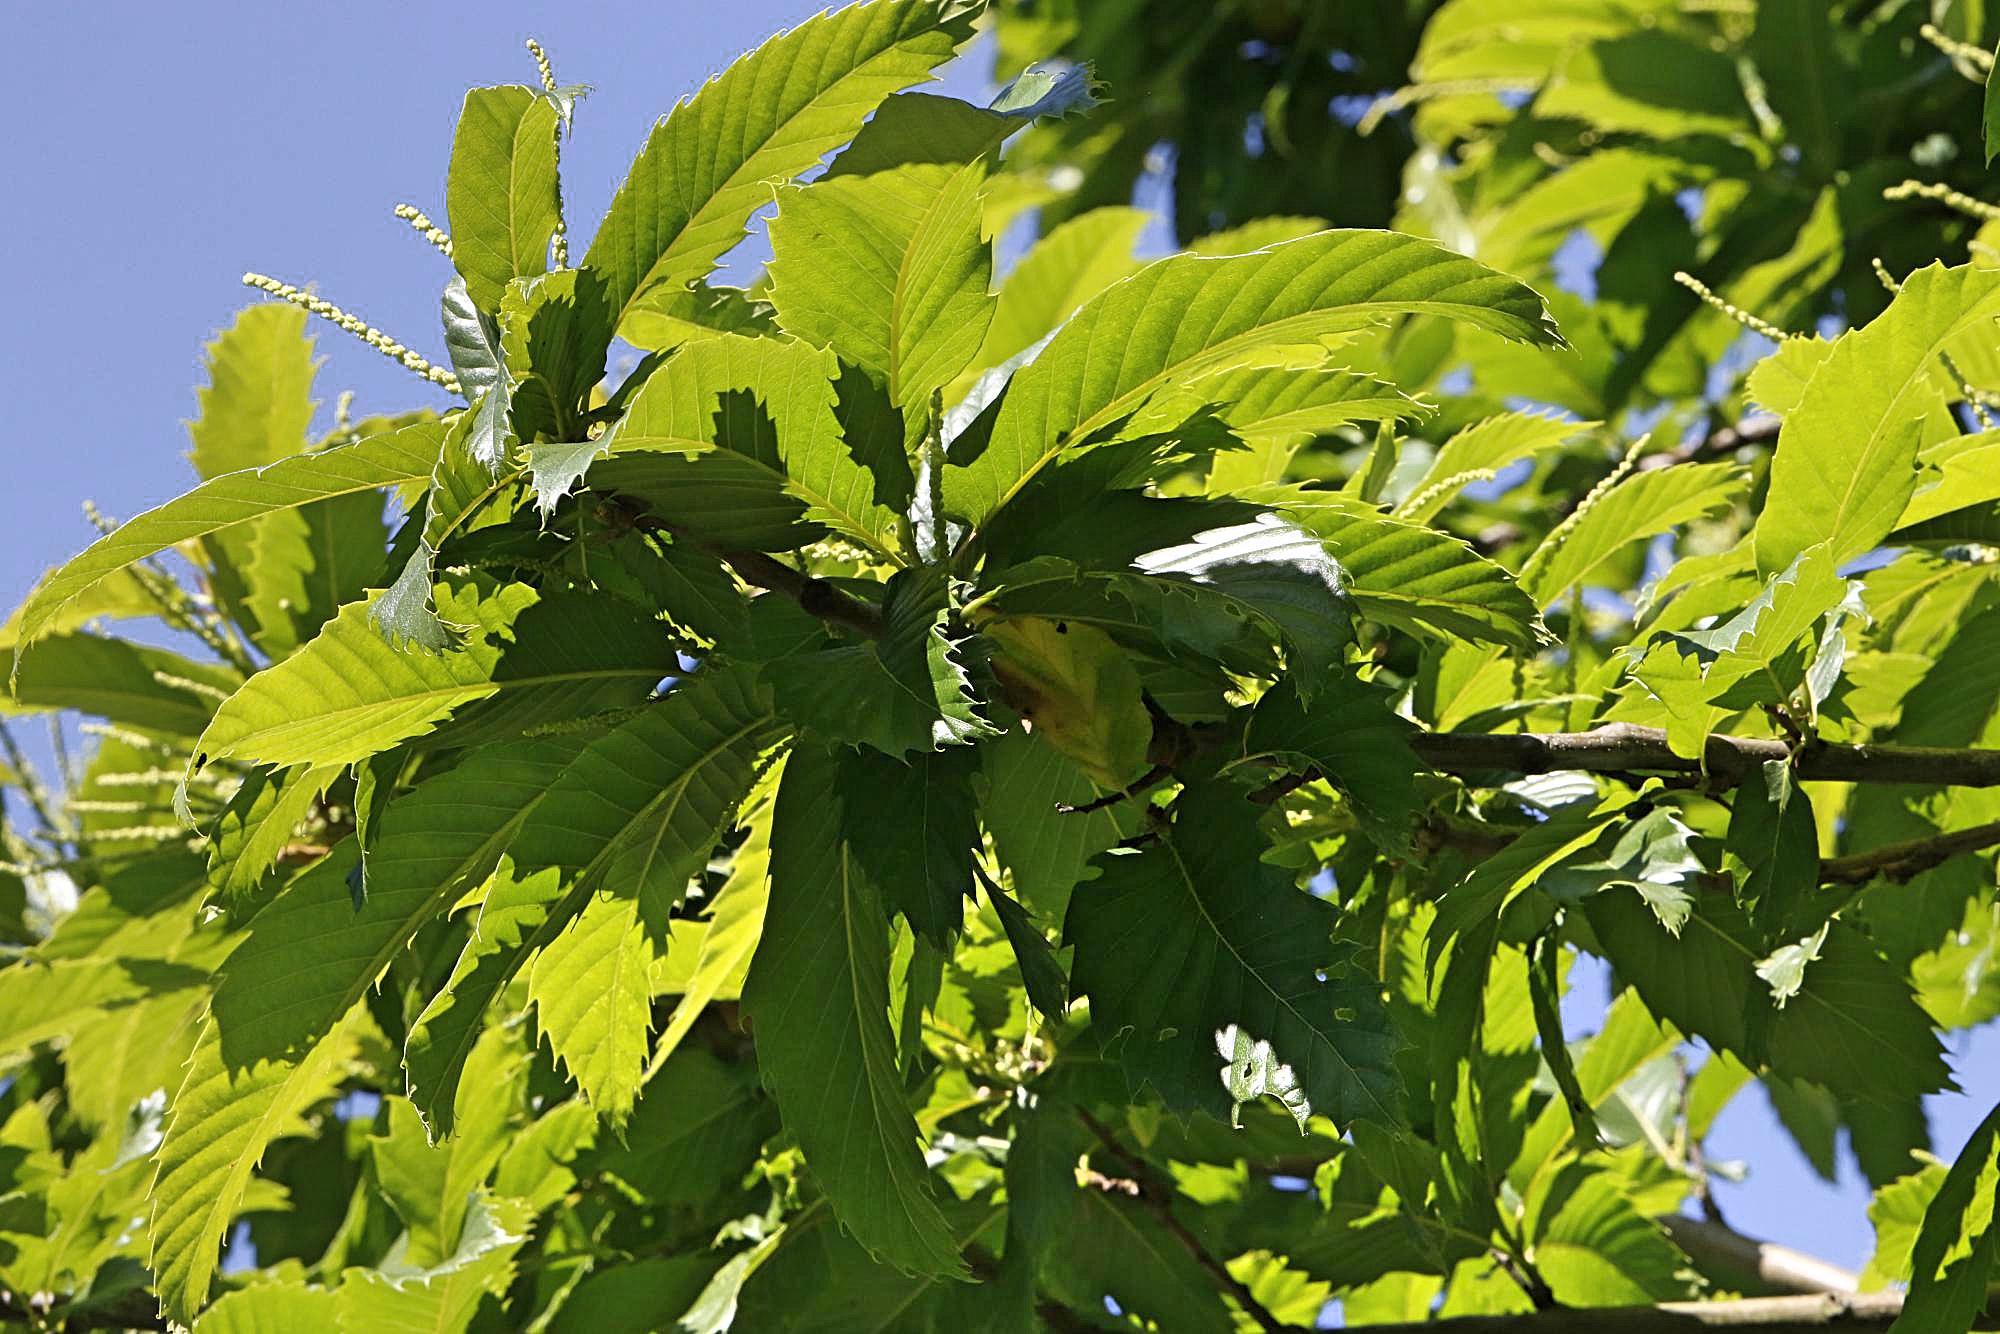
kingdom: Plantae
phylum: Tracheophyta
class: Magnoliopsida
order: Fagales
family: Fagaceae
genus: Castanea
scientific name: Castanea sativa
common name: Sweet chestnut
